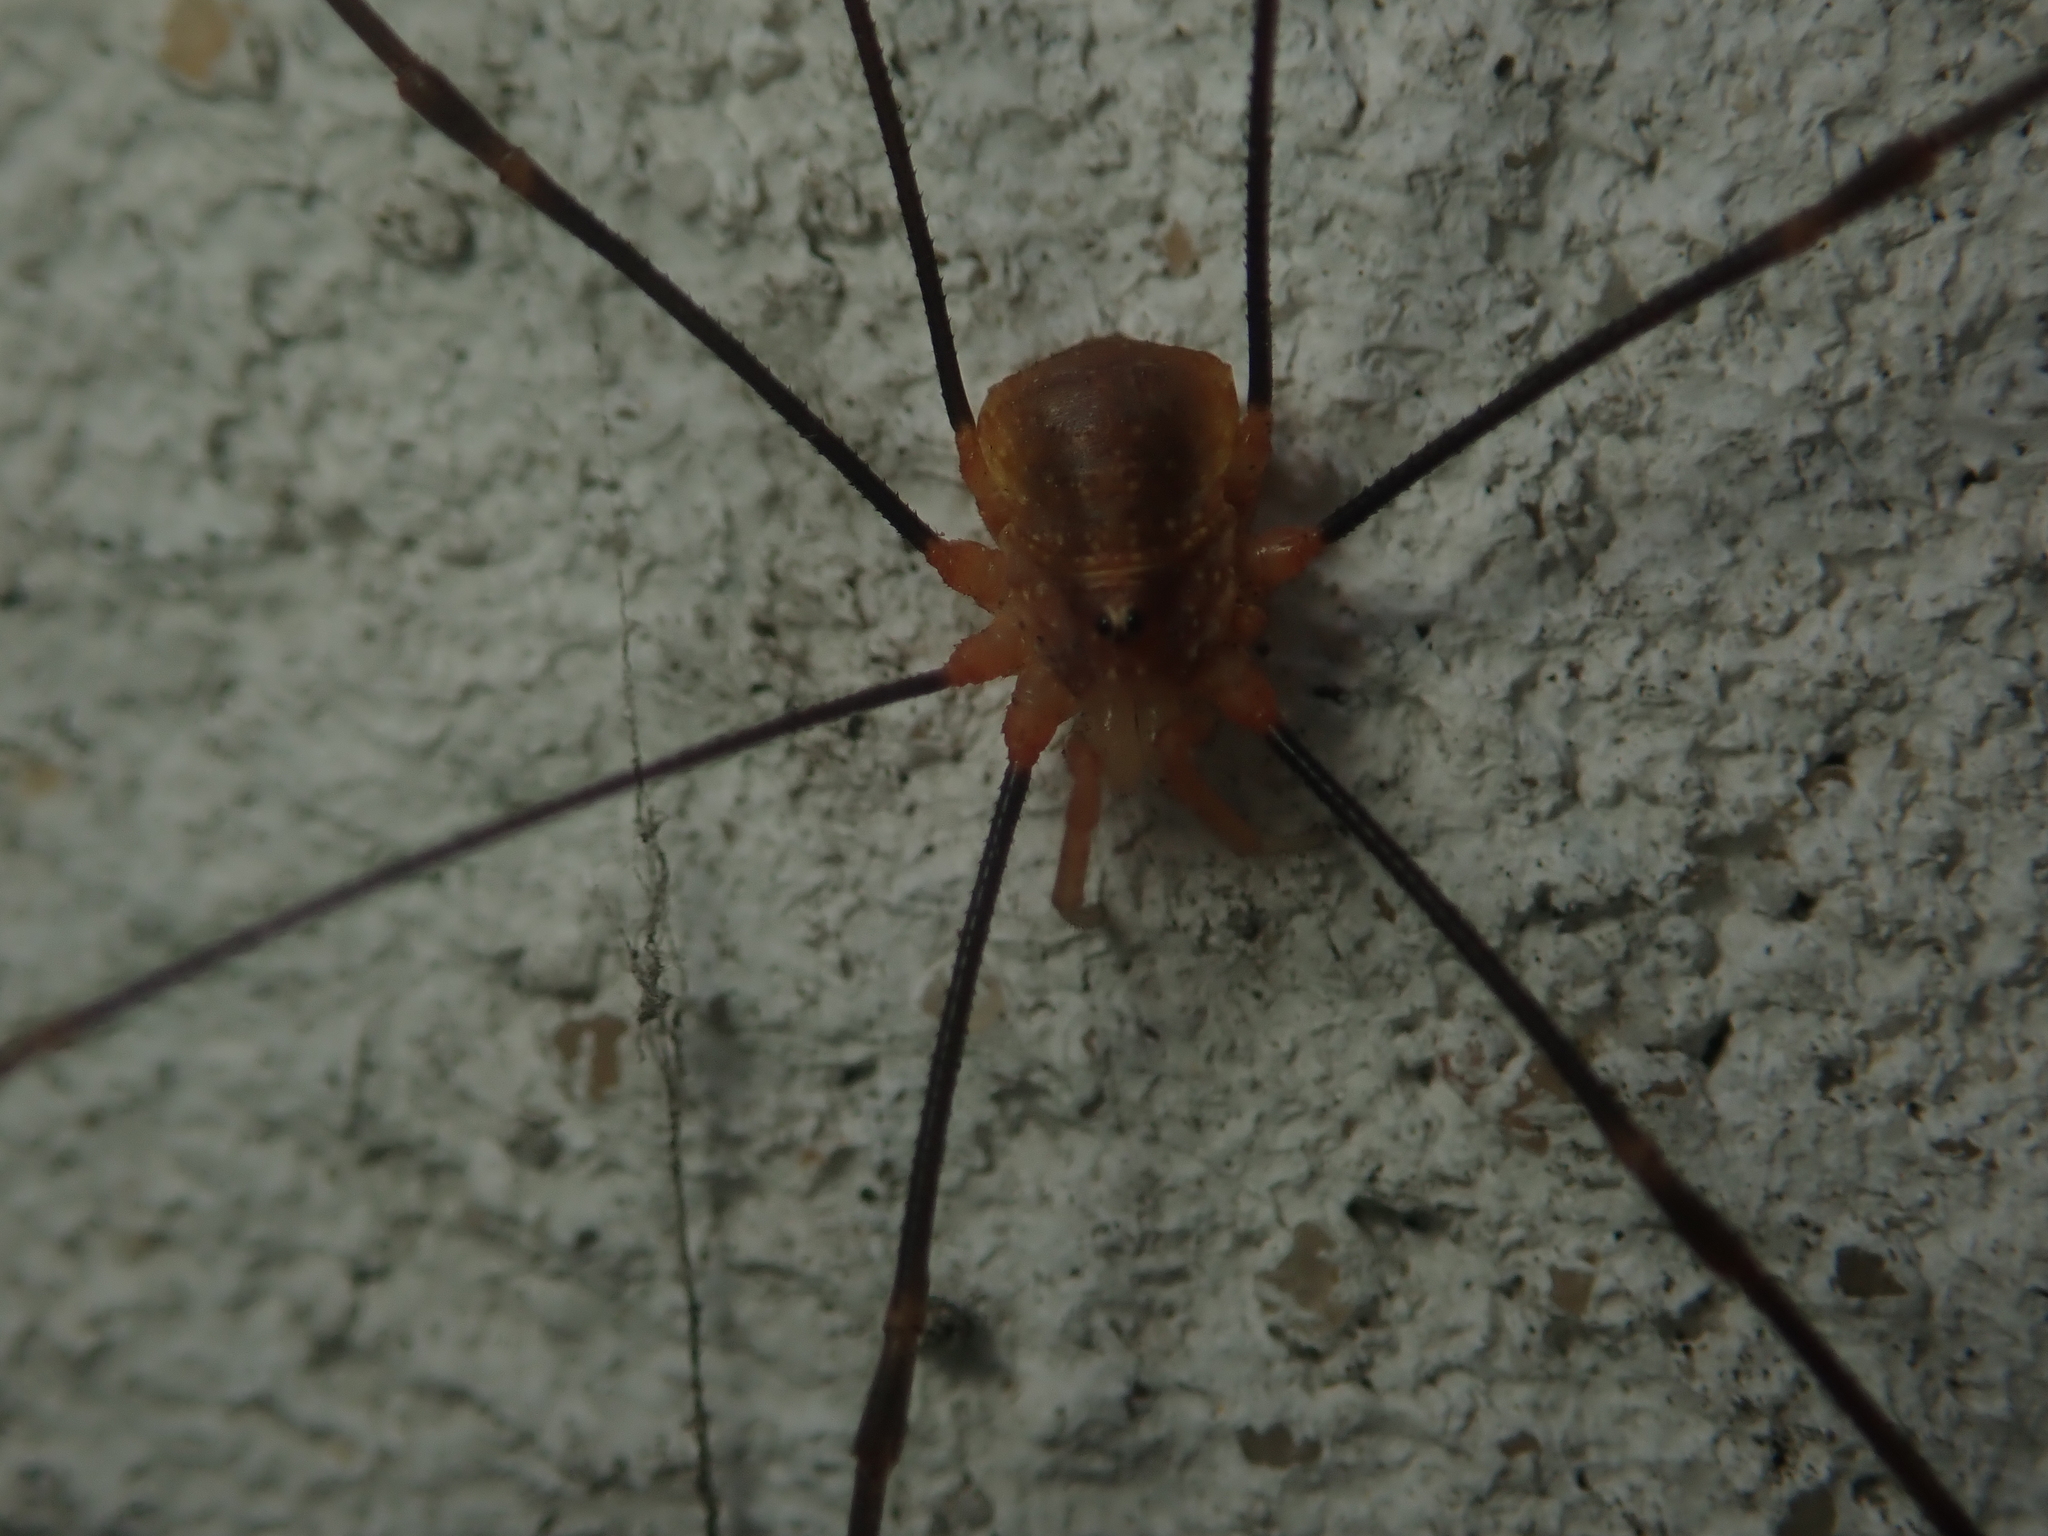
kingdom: Animalia
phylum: Arthropoda
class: Arachnida
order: Opiliones
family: Phalangiidae
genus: Opilio
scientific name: Opilio canestrinii
